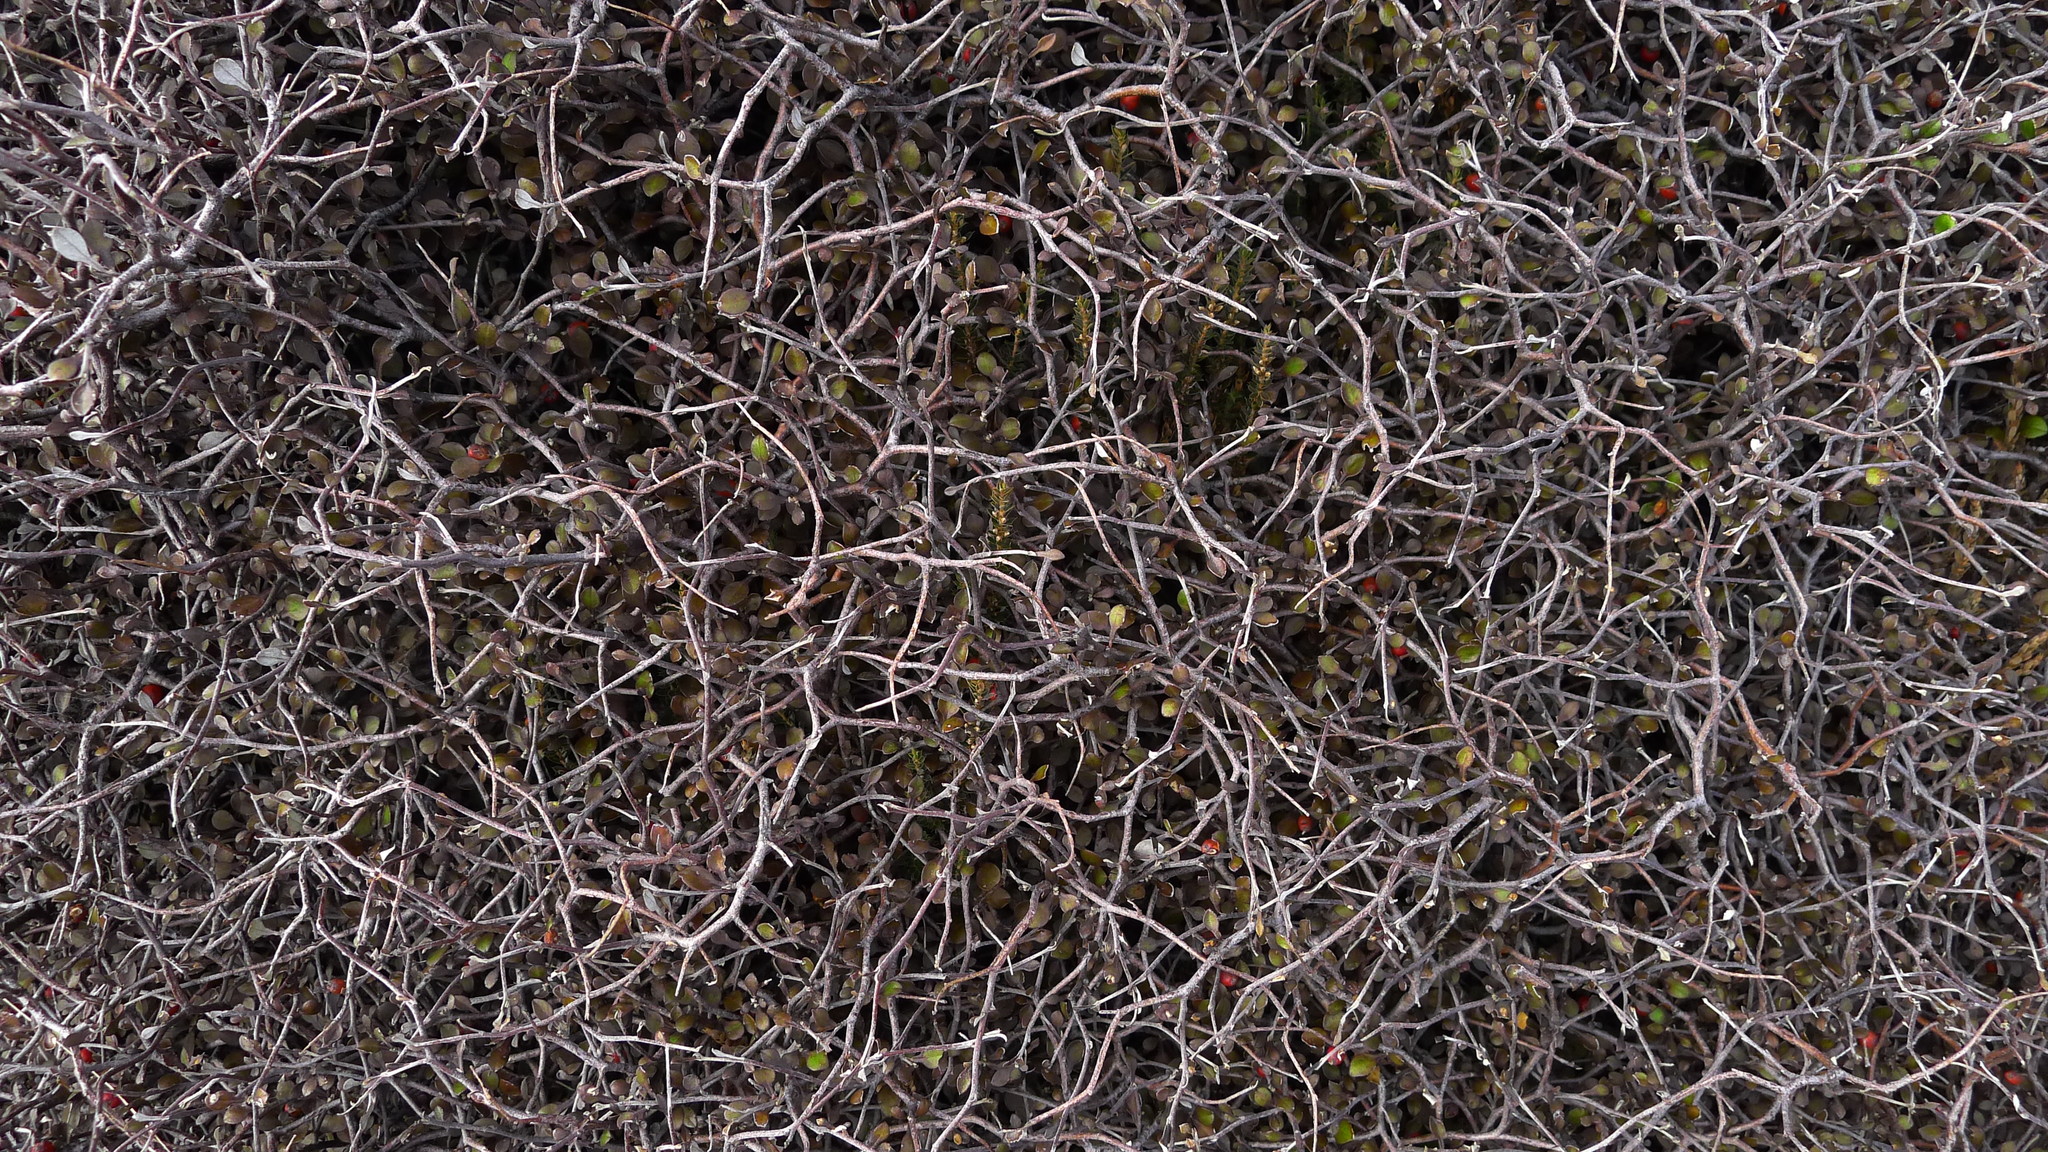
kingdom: Plantae
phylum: Tracheophyta
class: Magnoliopsida
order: Asterales
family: Argophyllaceae
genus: Corokia
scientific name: Corokia cotoneaster
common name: Wire nettingbush
